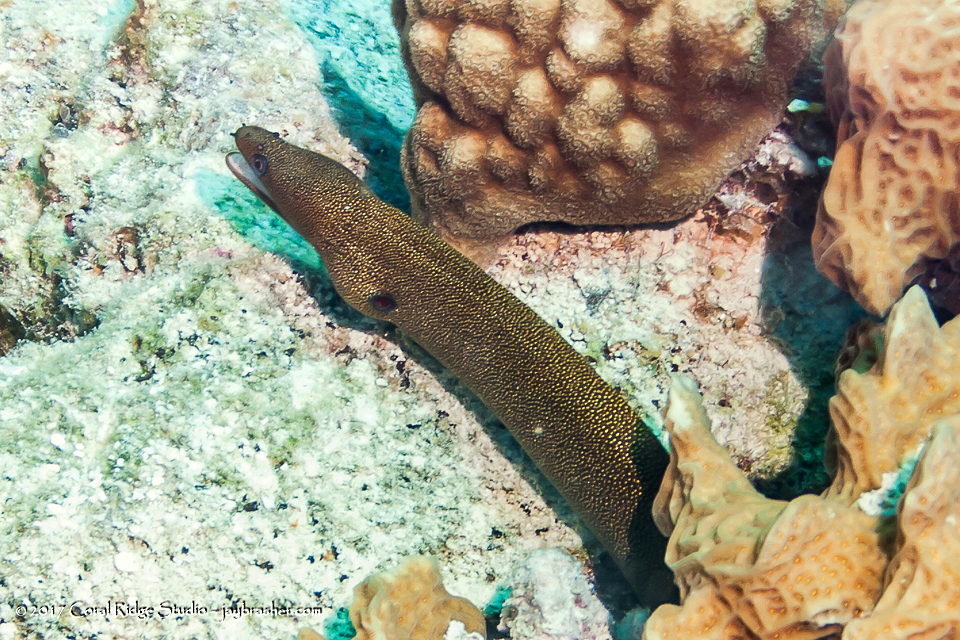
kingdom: Animalia
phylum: Chordata
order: Anguilliformes
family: Muraenidae
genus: Gymnothorax
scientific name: Gymnothorax miliaris
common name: Goldentail moray
